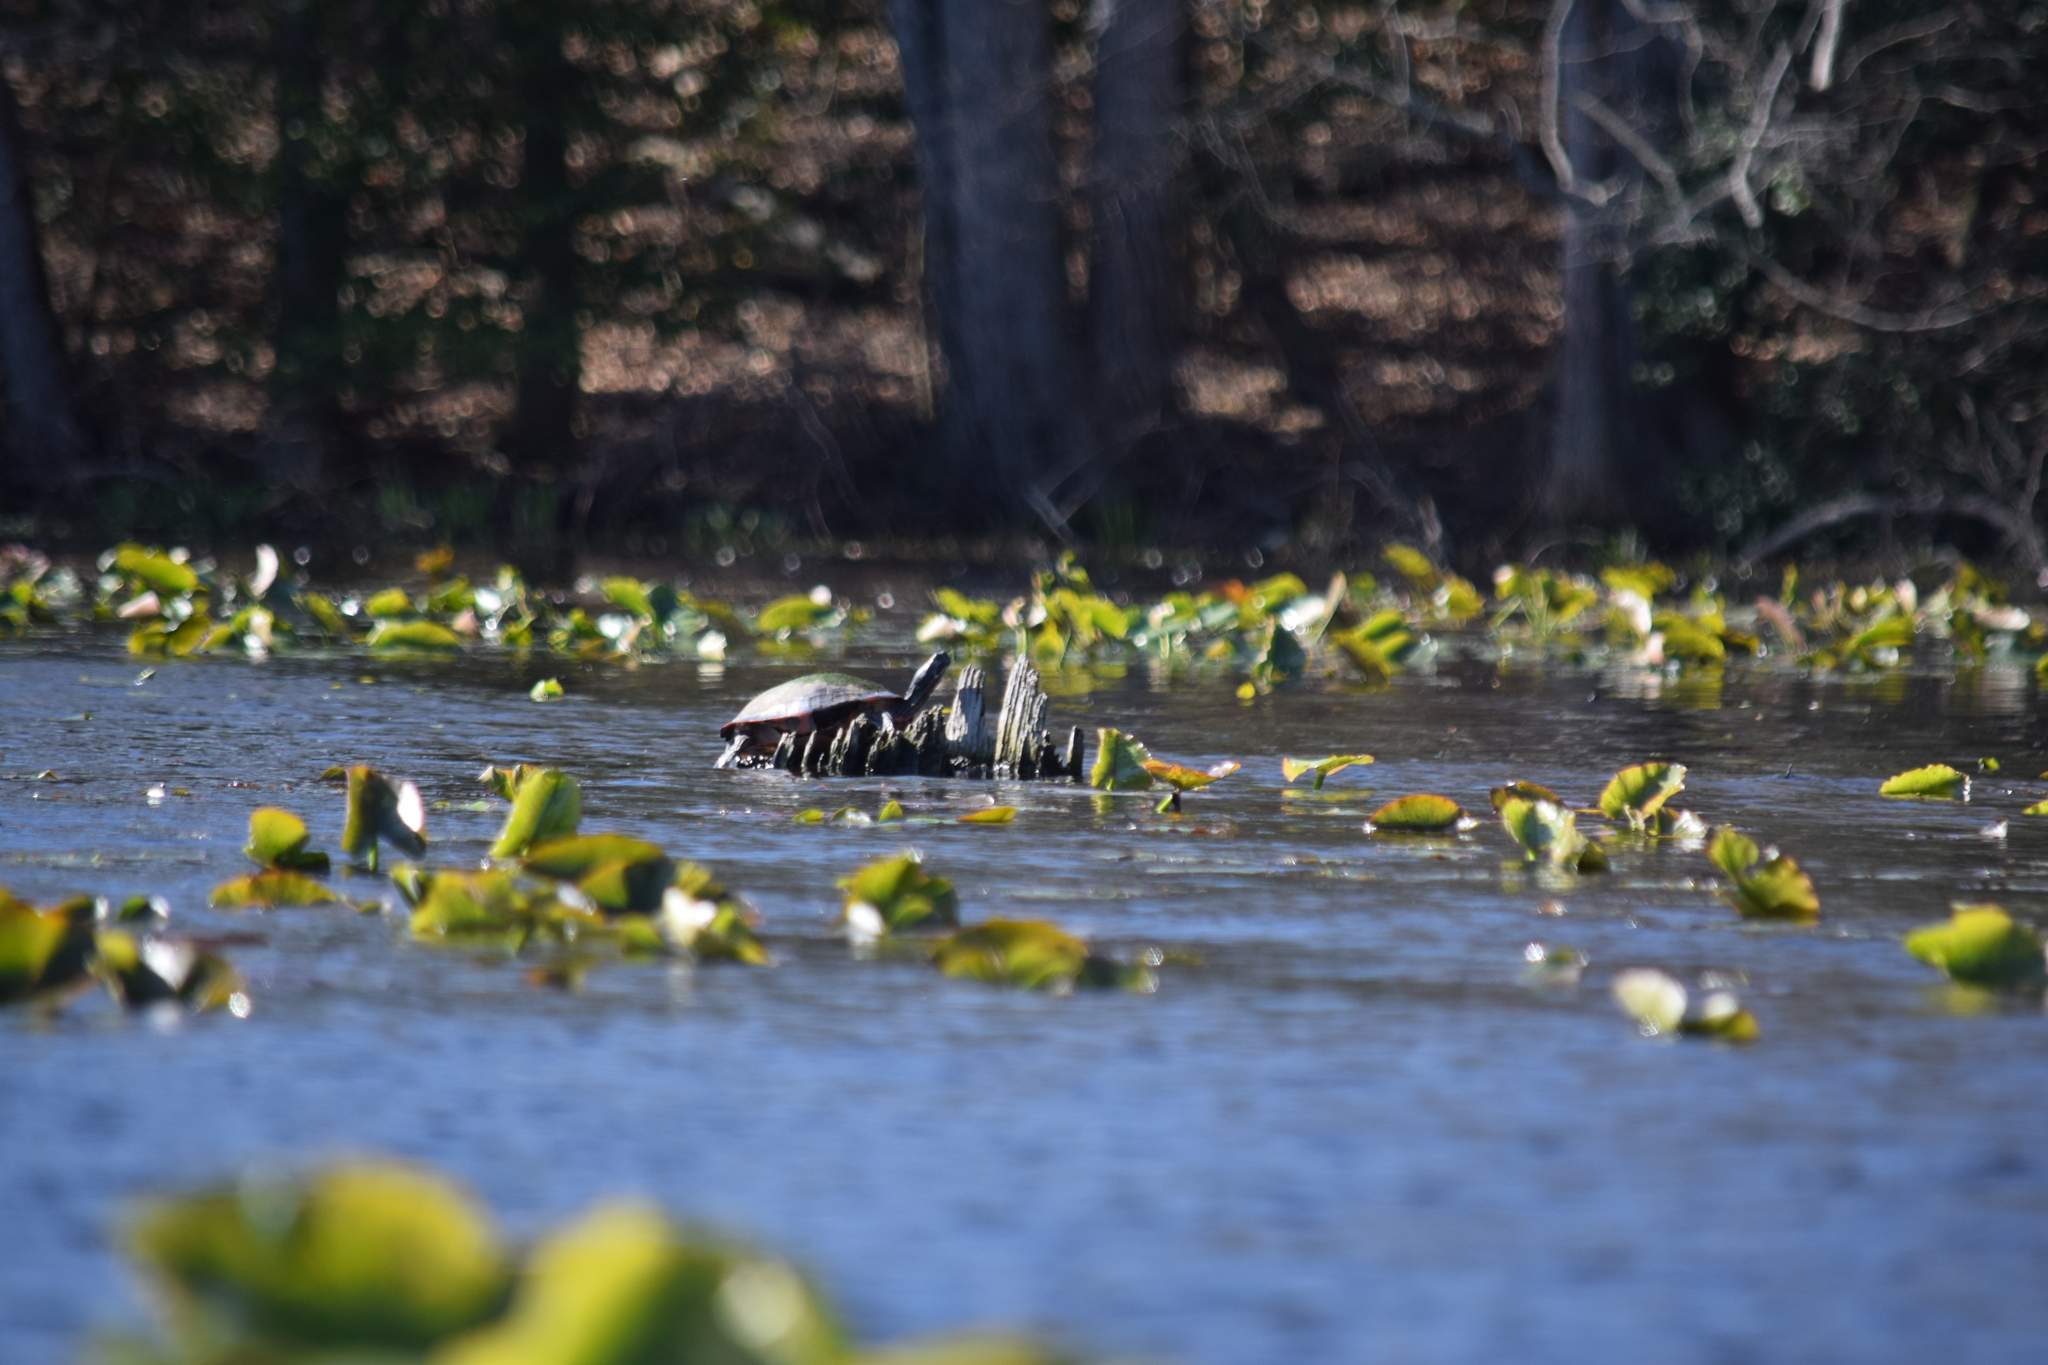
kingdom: Animalia
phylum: Chordata
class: Testudines
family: Emydidae
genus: Pseudemys
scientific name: Pseudemys rubriventris
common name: American red-bellied turtle
